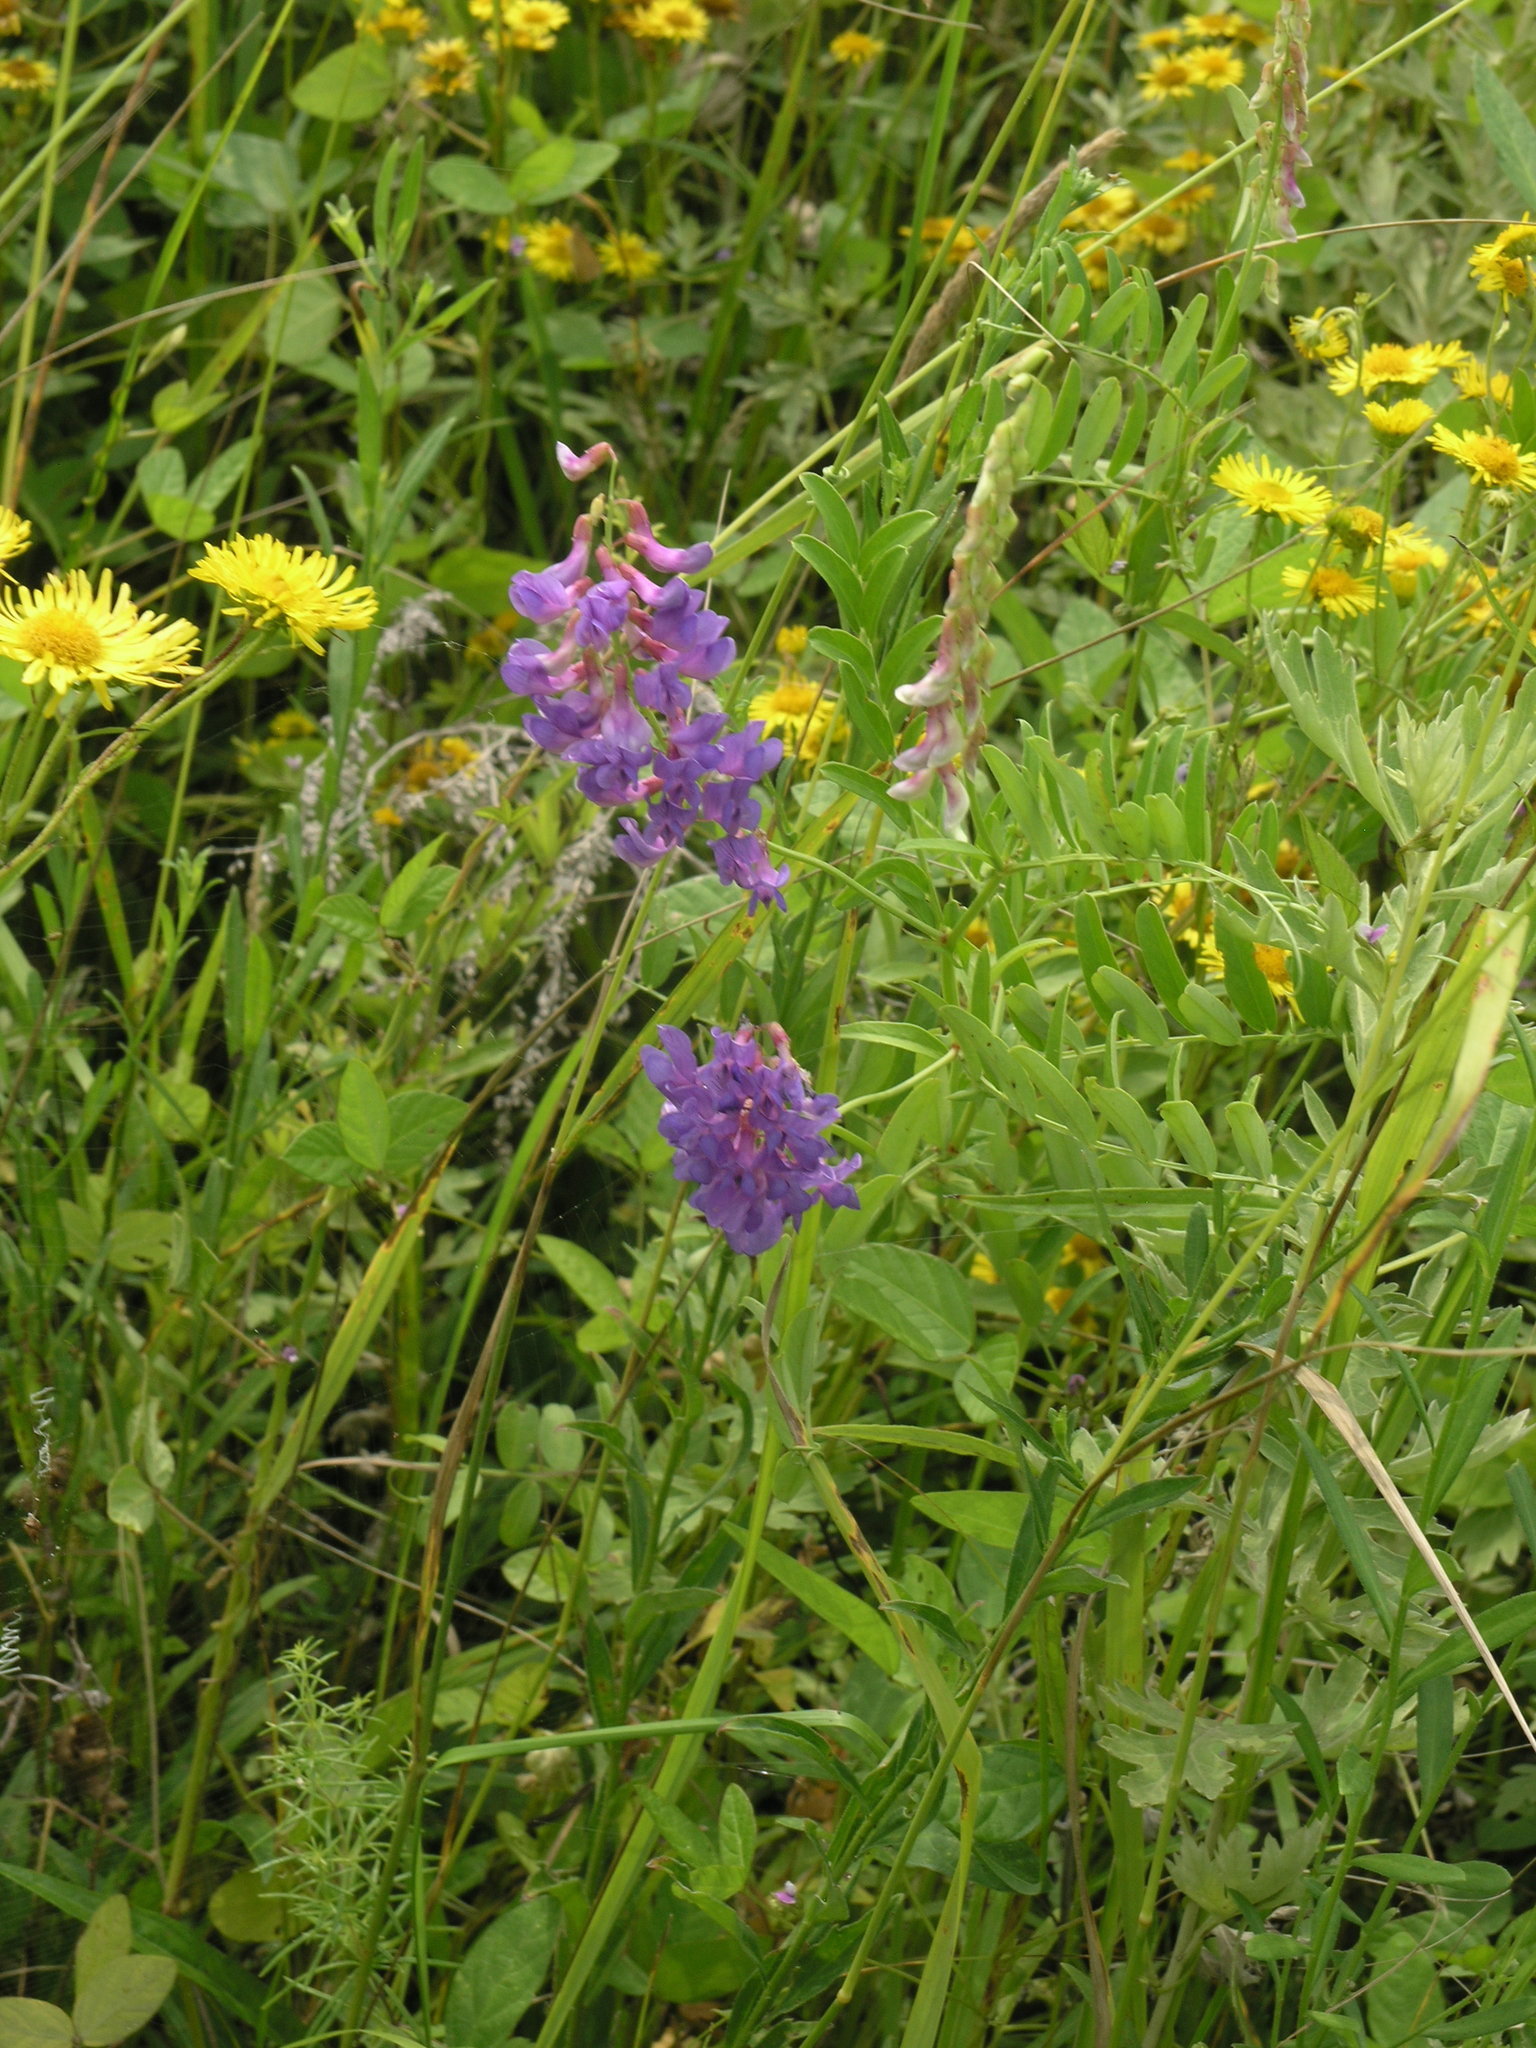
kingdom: Plantae
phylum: Tracheophyta
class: Magnoliopsida
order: Fabales
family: Fabaceae
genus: Vicia
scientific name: Vicia amoena
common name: Cheder ebs
